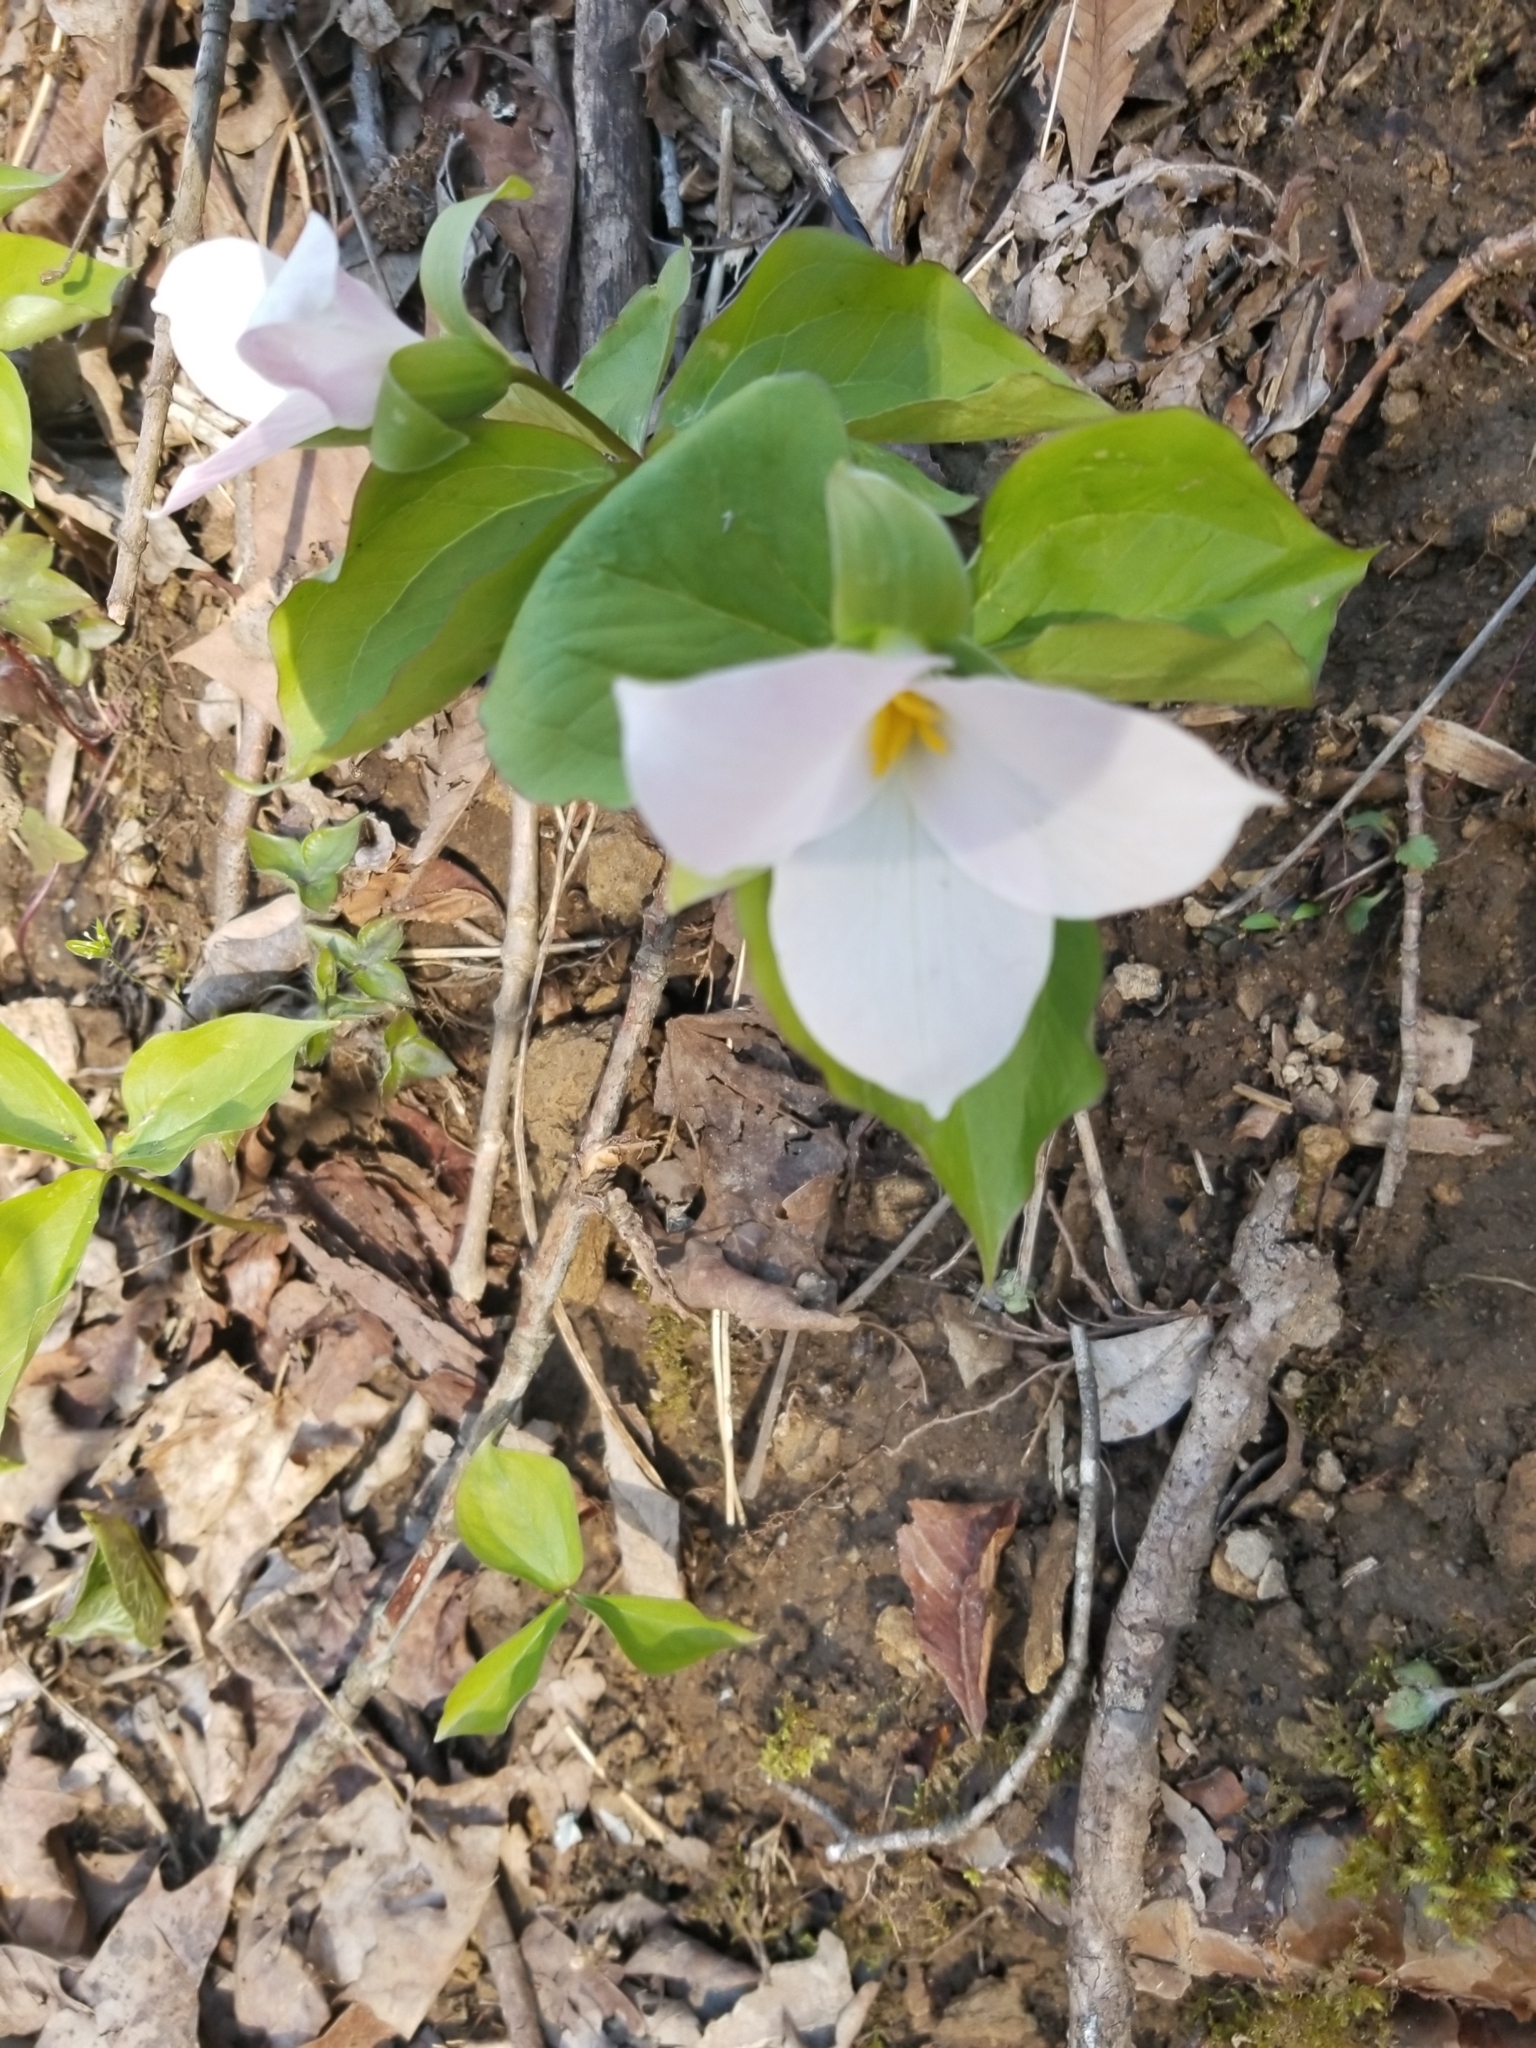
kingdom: Plantae
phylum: Tracheophyta
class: Liliopsida
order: Liliales
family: Melanthiaceae
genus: Trillium
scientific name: Trillium grandiflorum
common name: Great white trillium
